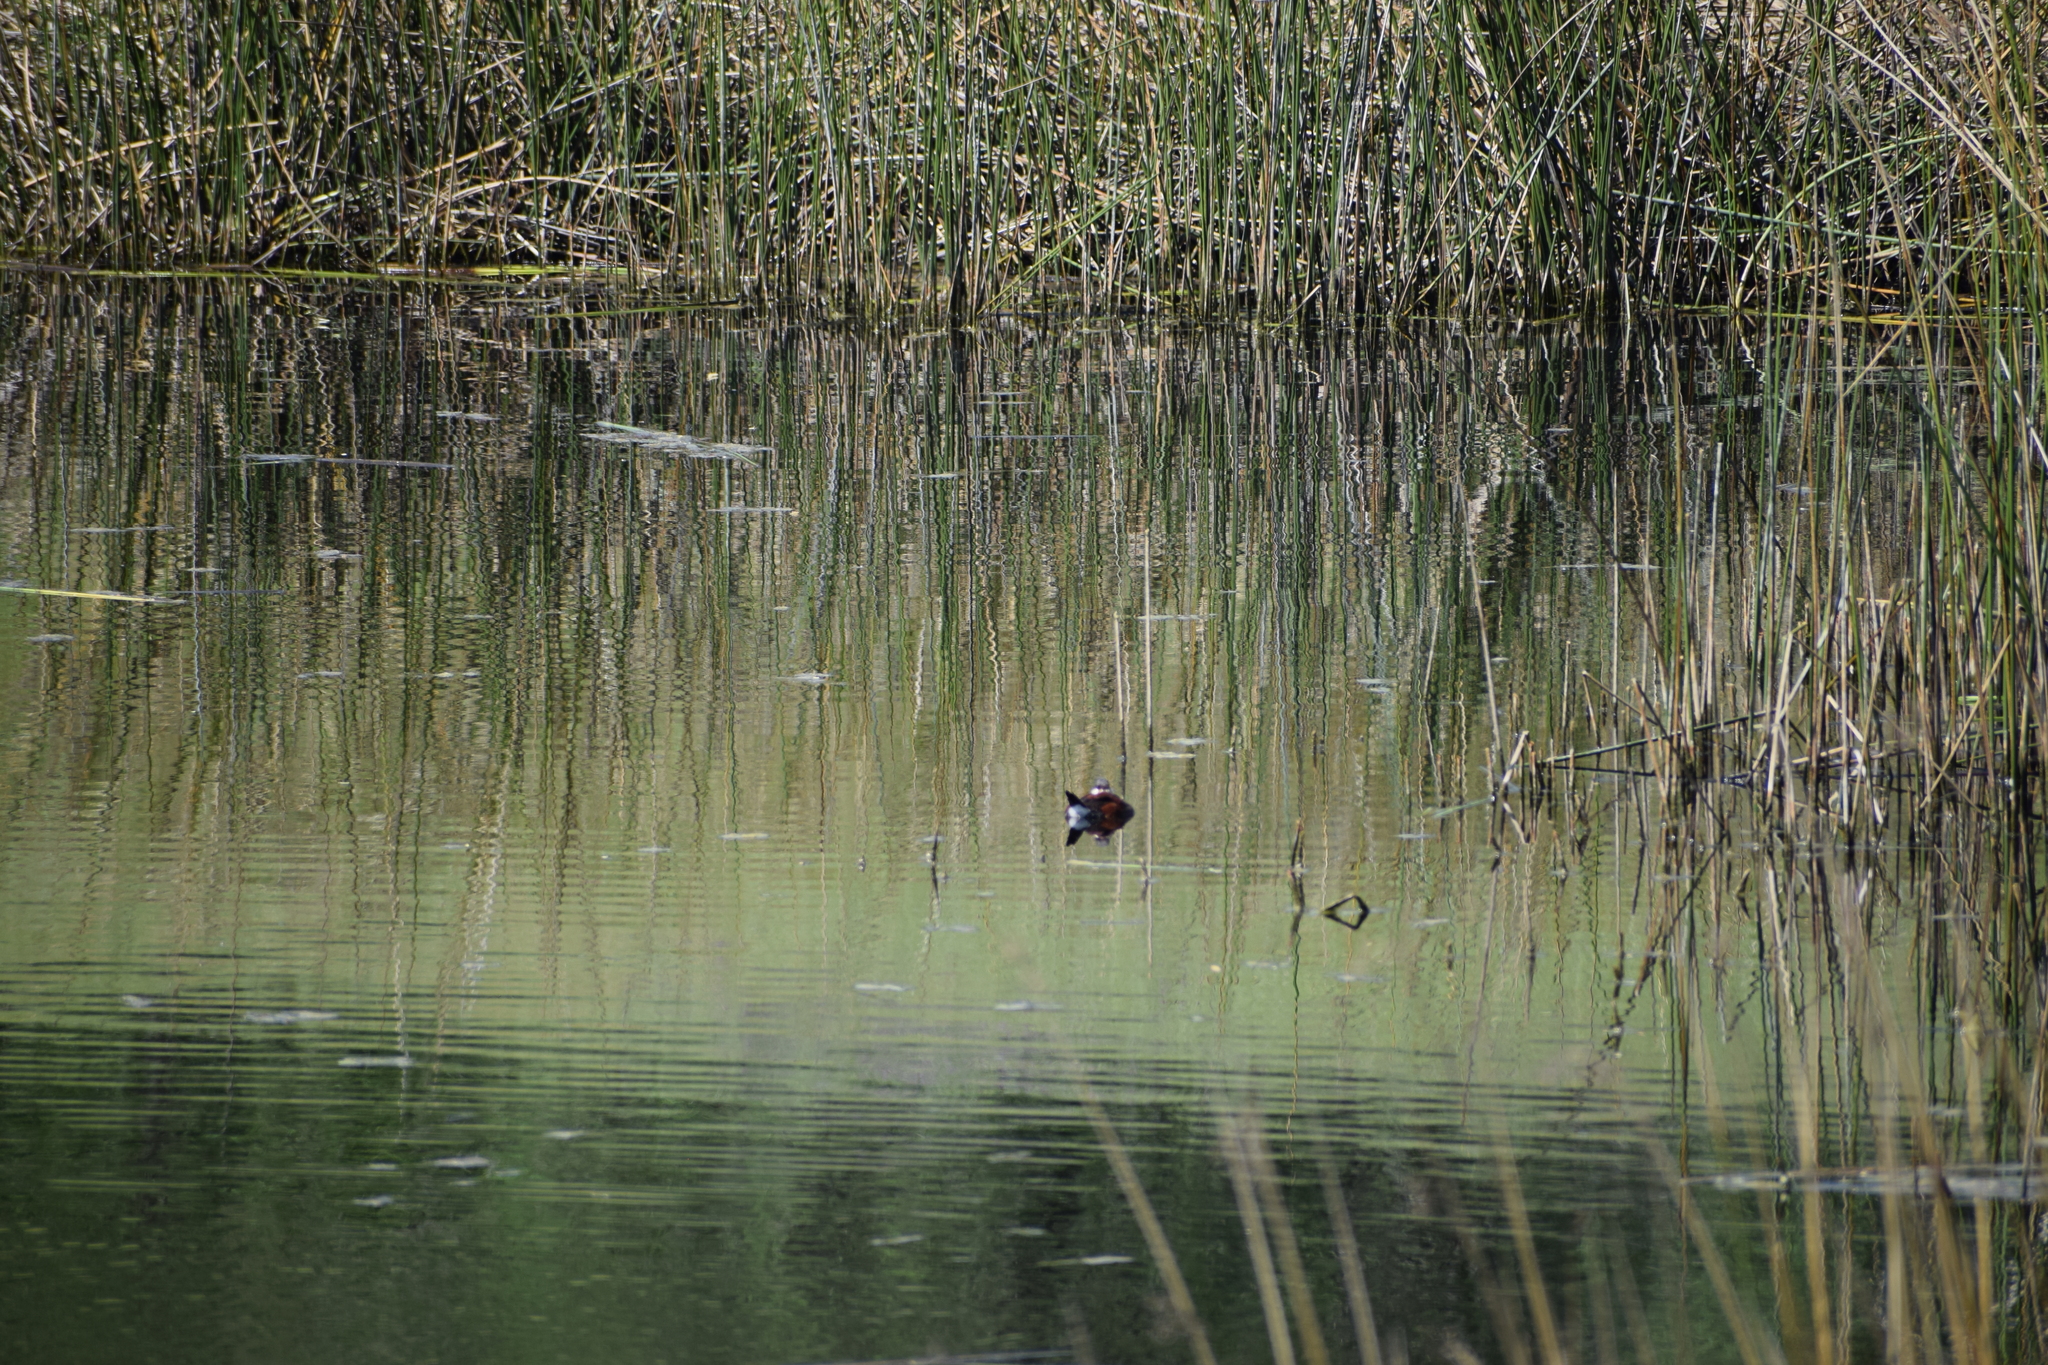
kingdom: Animalia
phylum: Chordata
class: Aves
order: Anseriformes
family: Anatidae
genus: Oxyura
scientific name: Oxyura jamaicensis
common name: Ruddy duck
